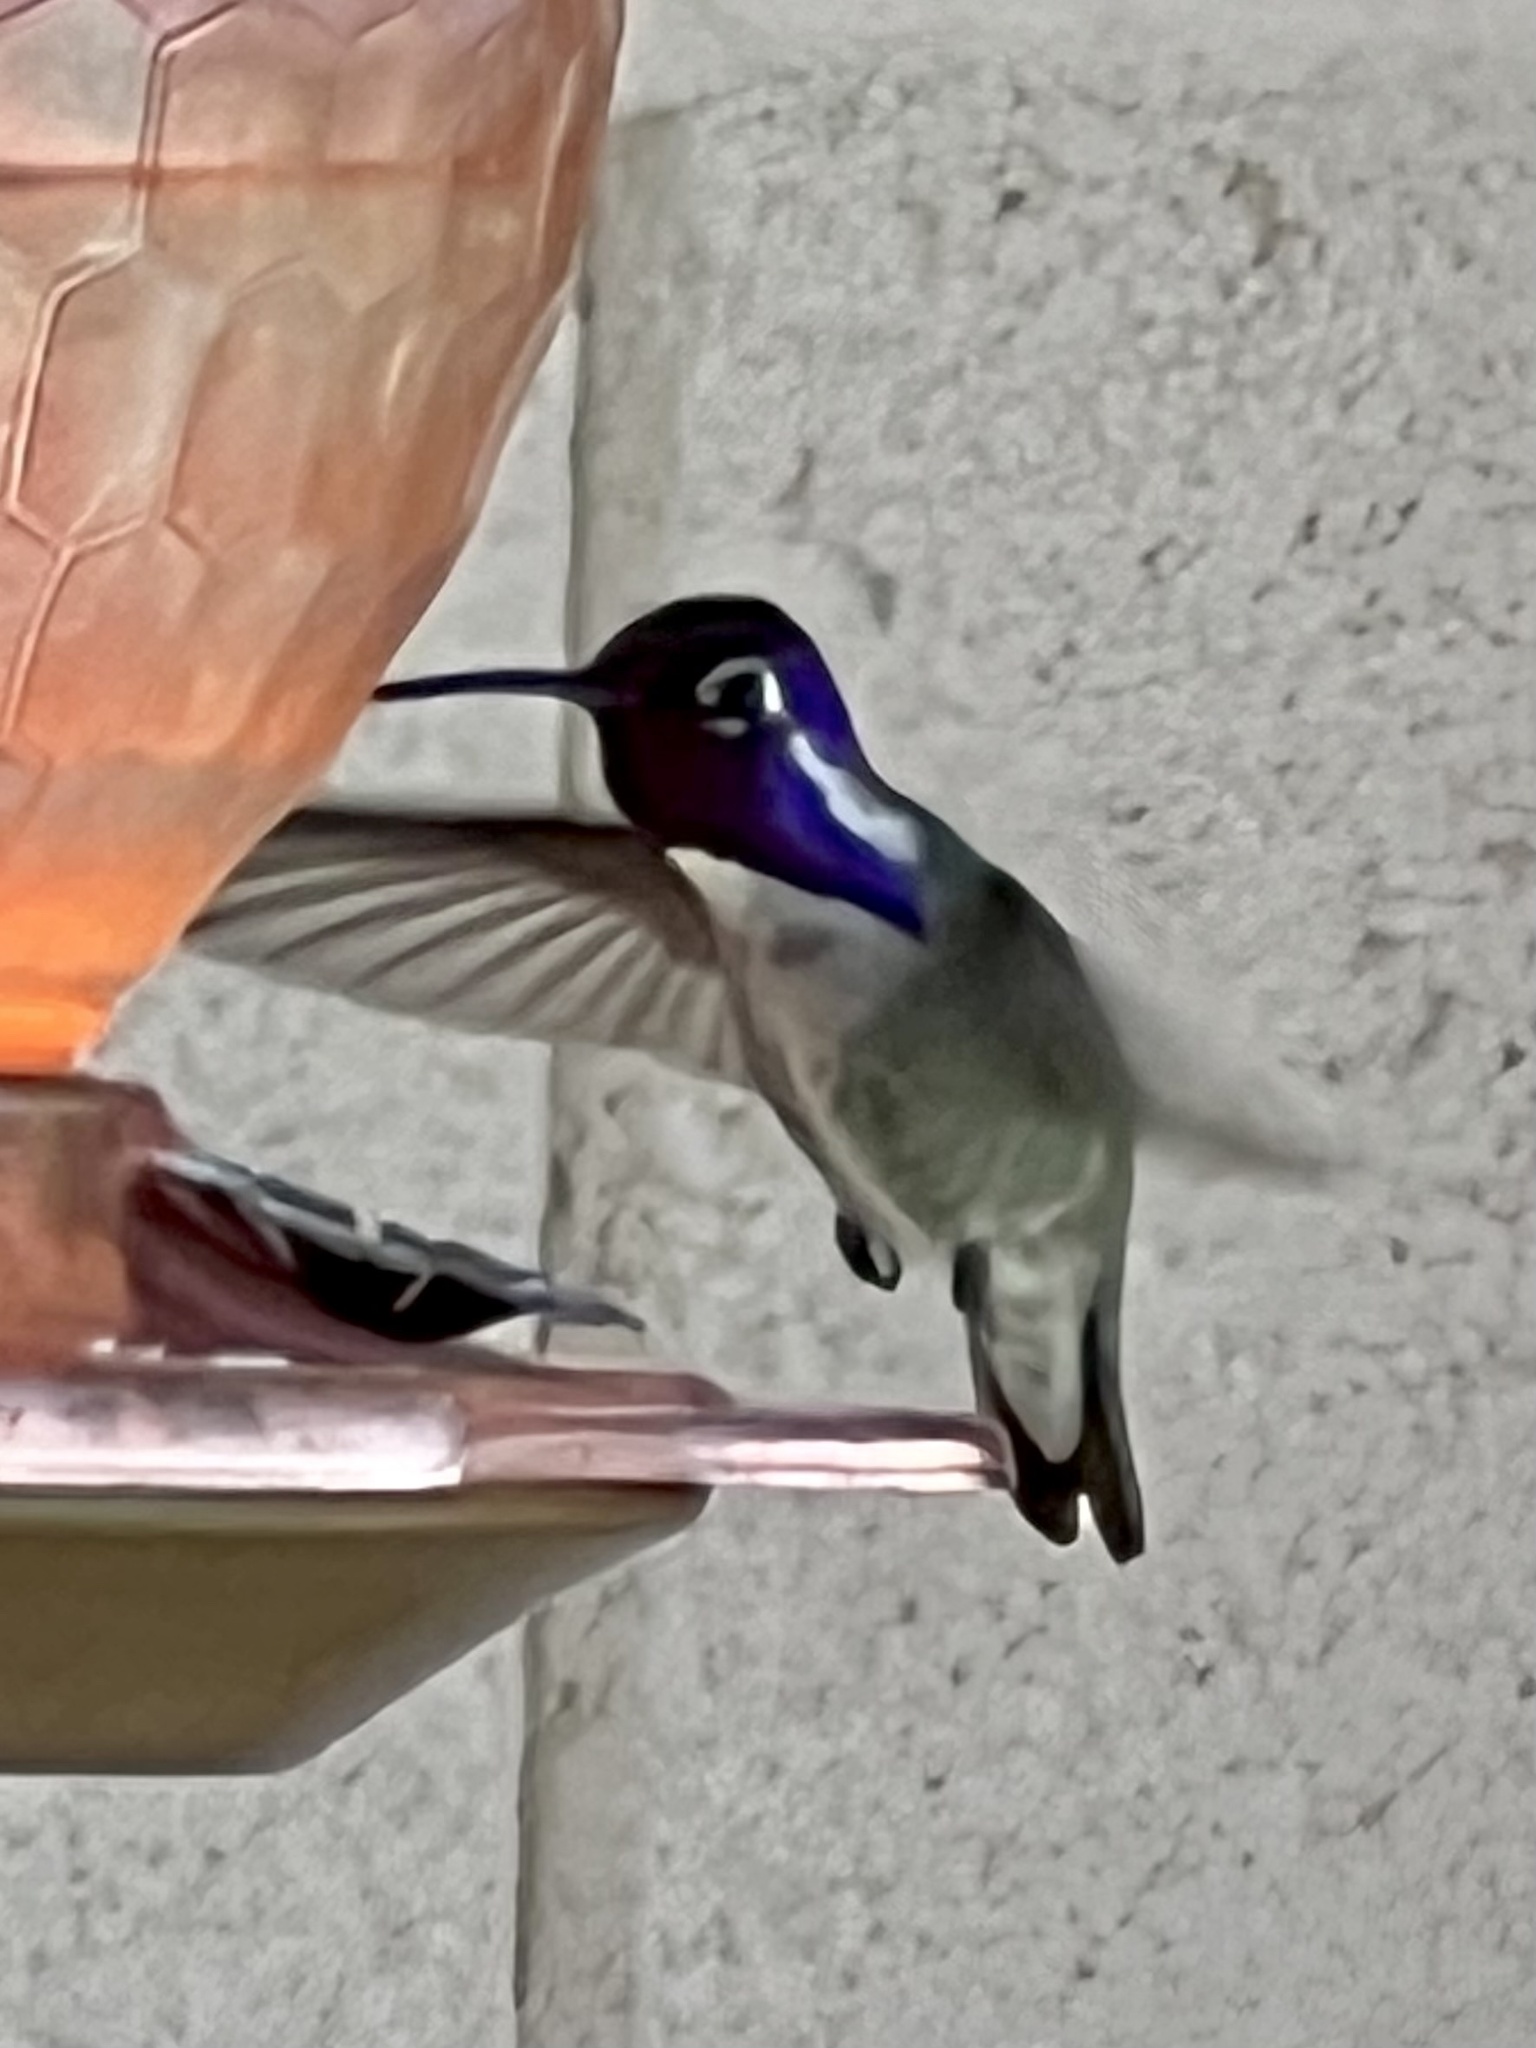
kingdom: Animalia
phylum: Chordata
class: Aves
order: Apodiformes
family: Trochilidae
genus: Calypte
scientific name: Calypte costae
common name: Costa's hummingbird
